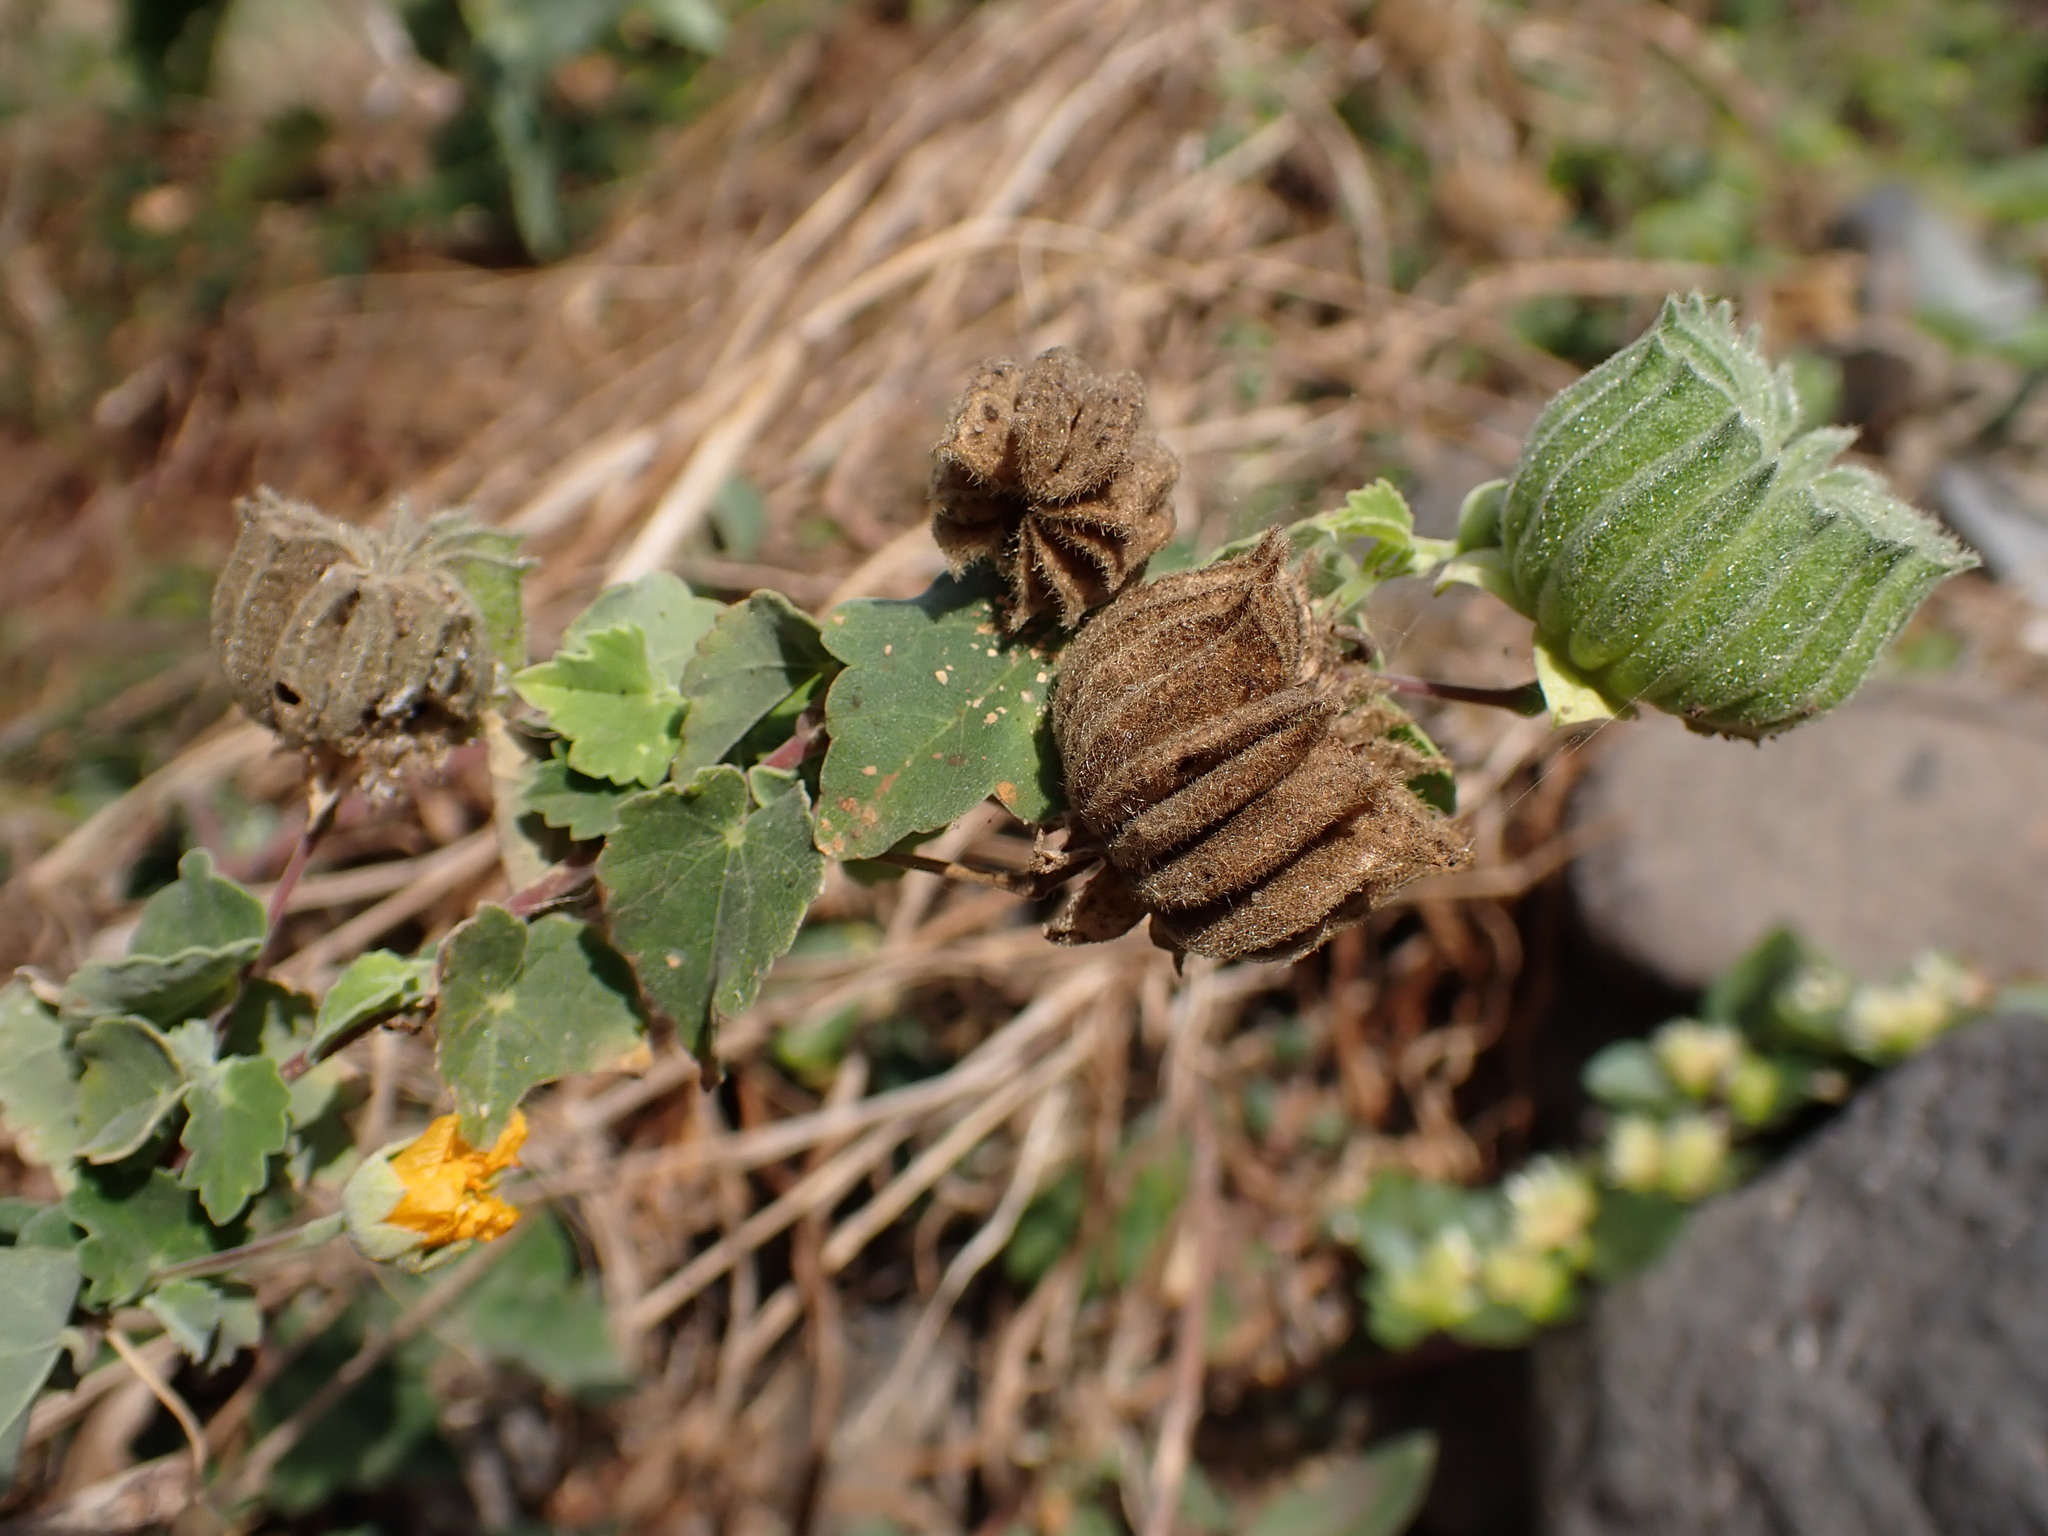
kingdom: Plantae
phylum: Tracheophyta
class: Magnoliopsida
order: Malvales
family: Malvaceae
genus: Abutilon
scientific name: Abutilon indicum
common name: Indian abutilon
